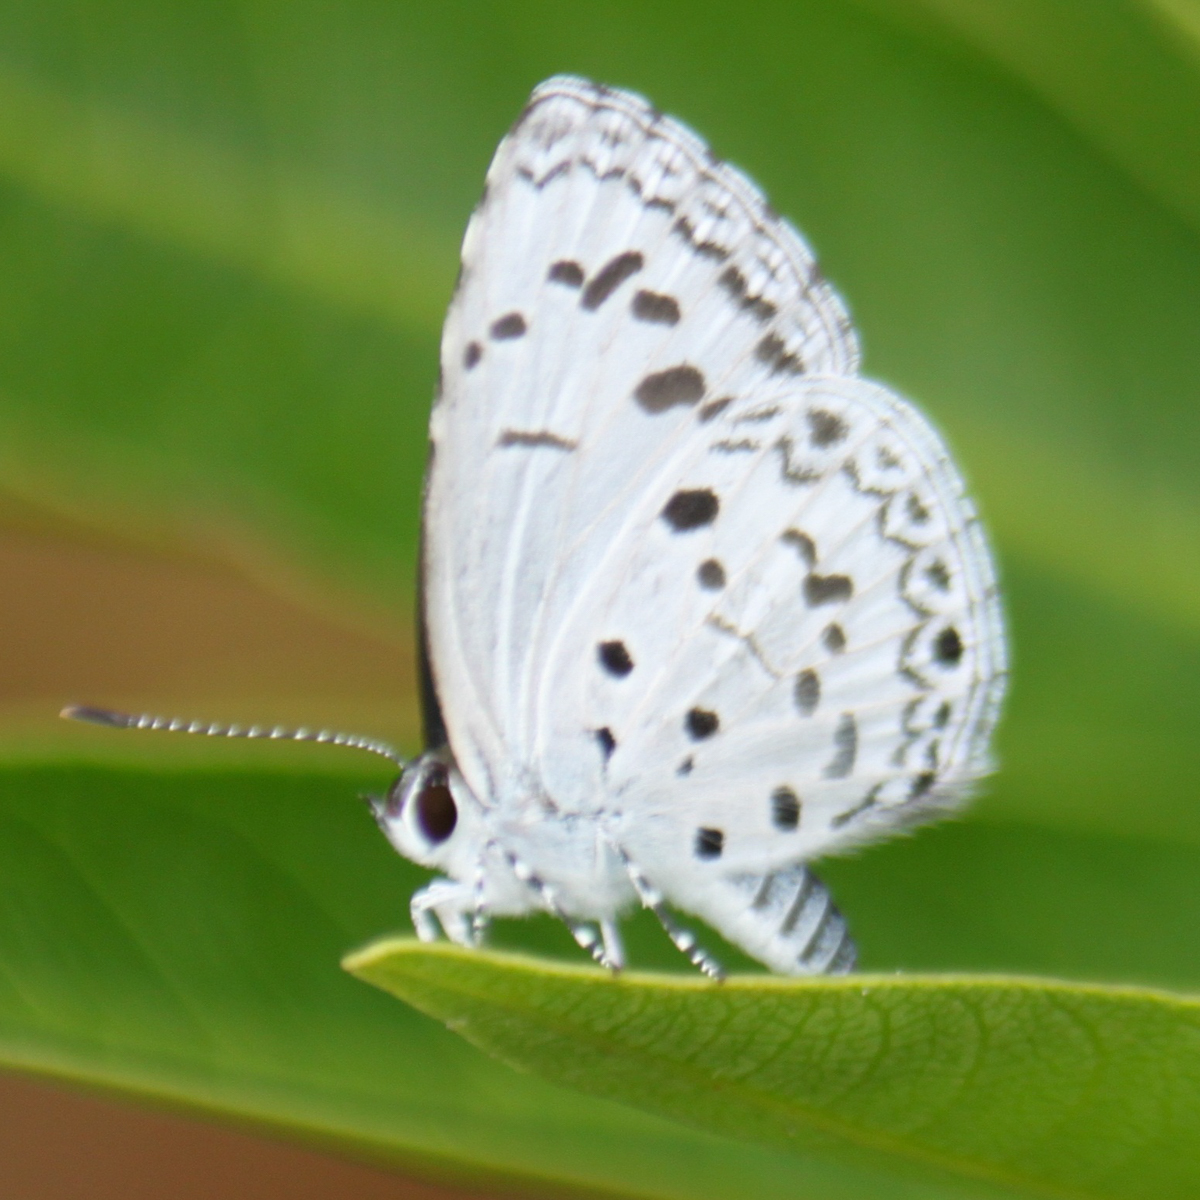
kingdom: Animalia
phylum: Arthropoda
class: Insecta
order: Lepidoptera
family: Lycaenidae
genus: Acytolepis
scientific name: Acytolepis puspa
